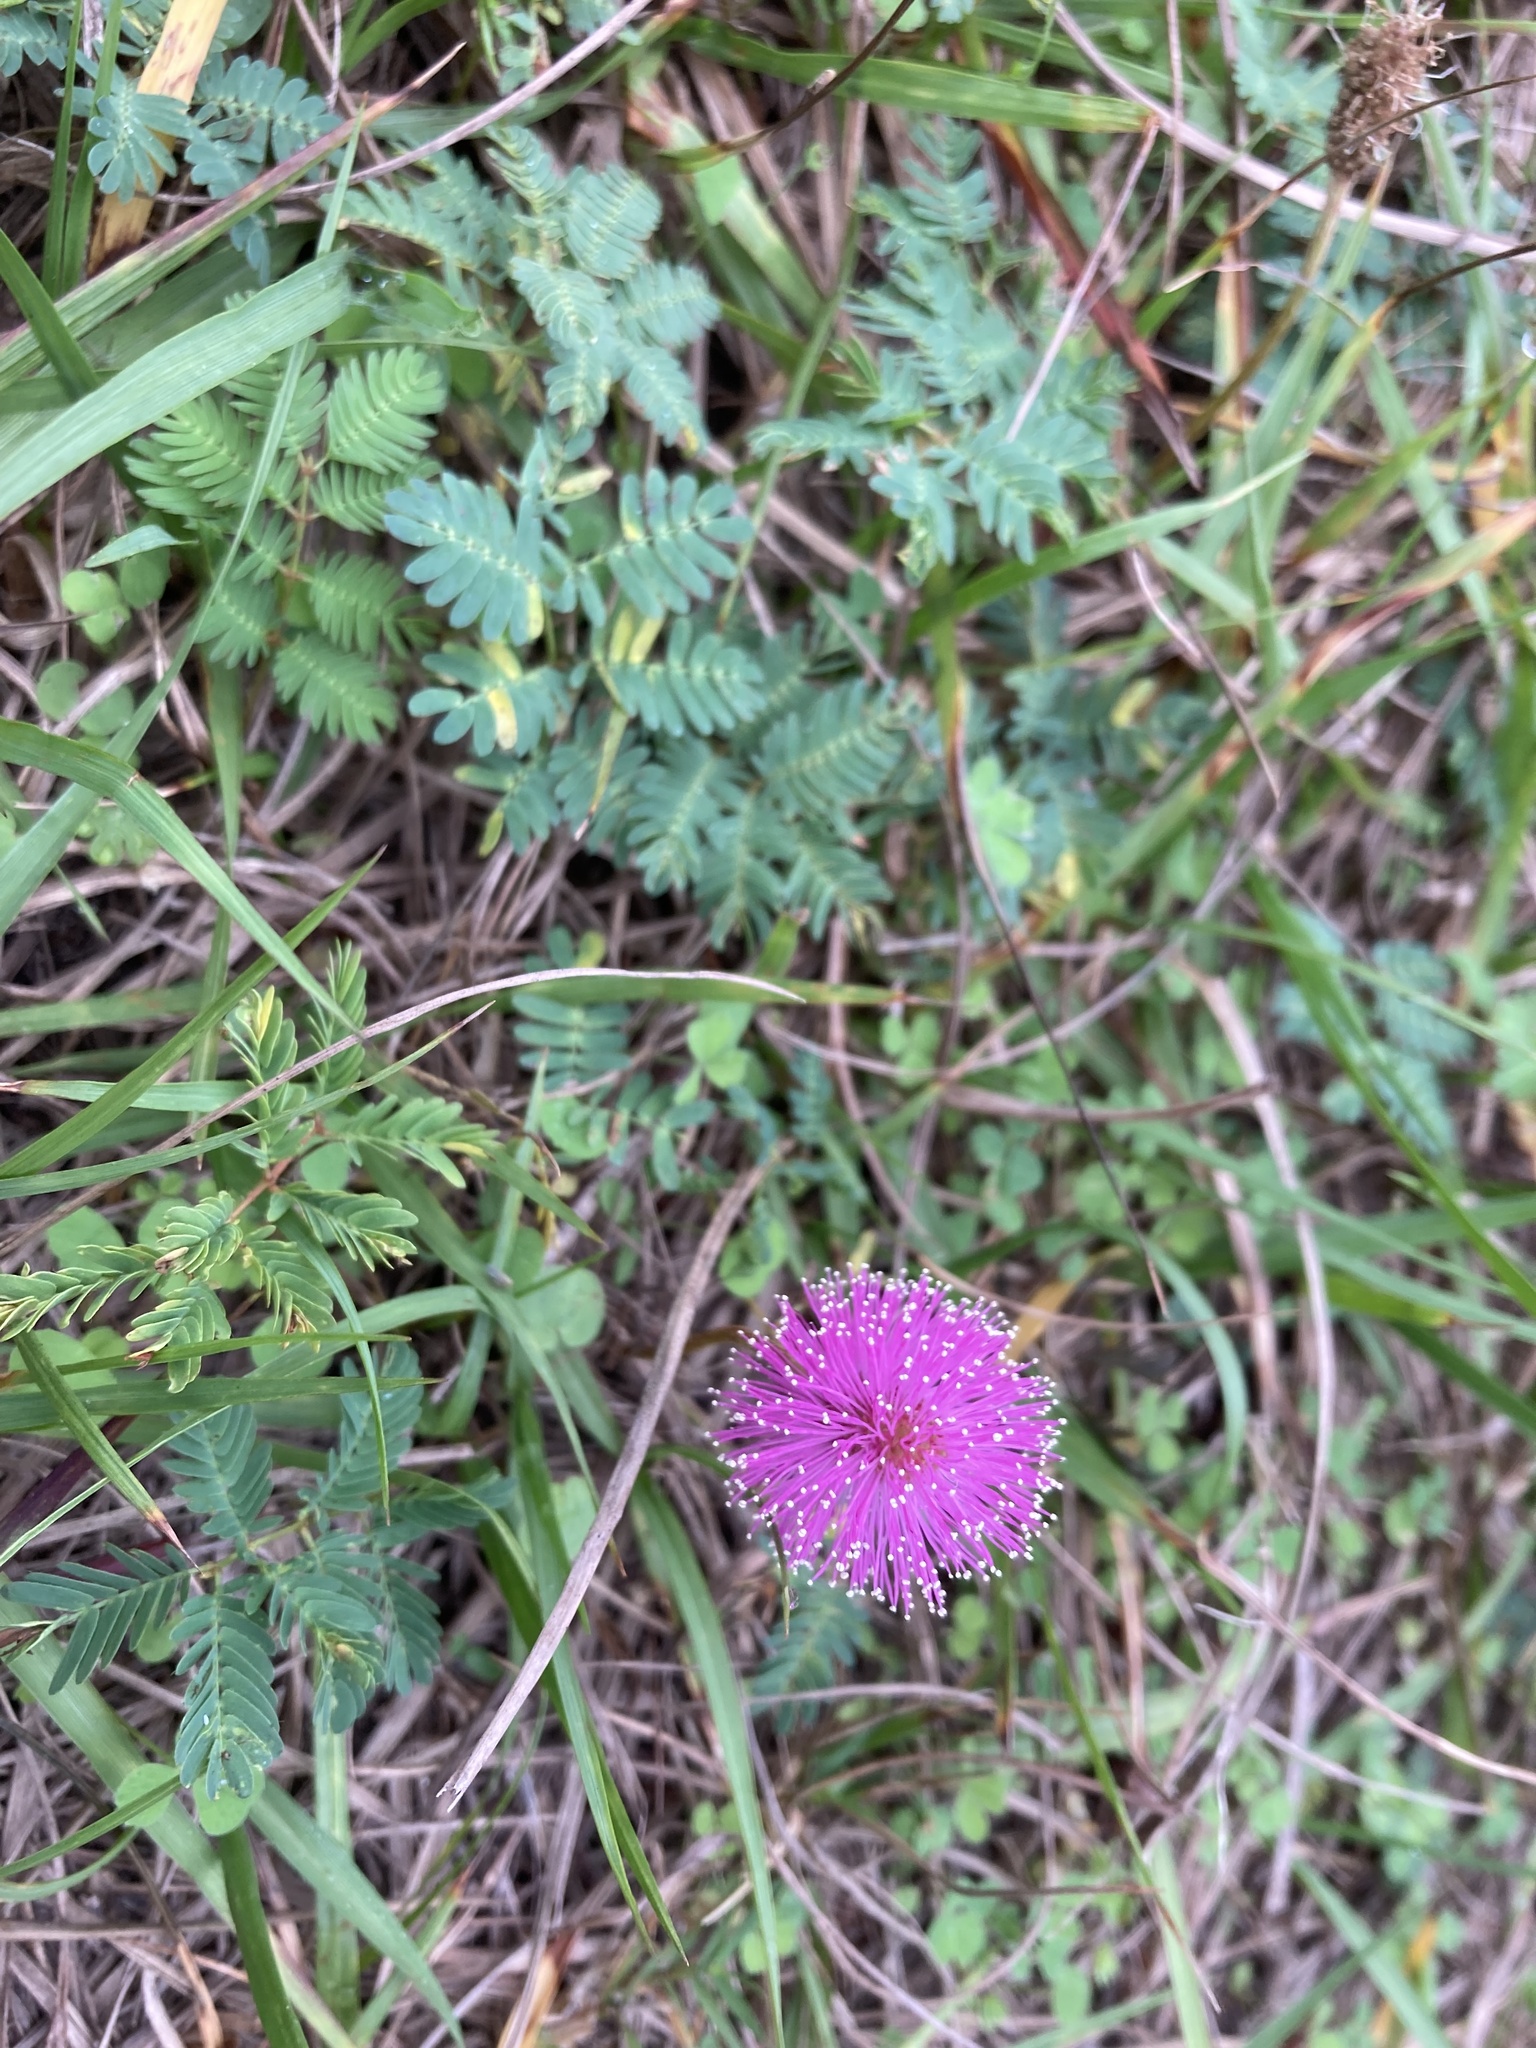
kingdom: Plantae
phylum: Tracheophyta
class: Magnoliopsida
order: Fabales
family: Fabaceae
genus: Mimosa
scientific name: Mimosa strigillosa
